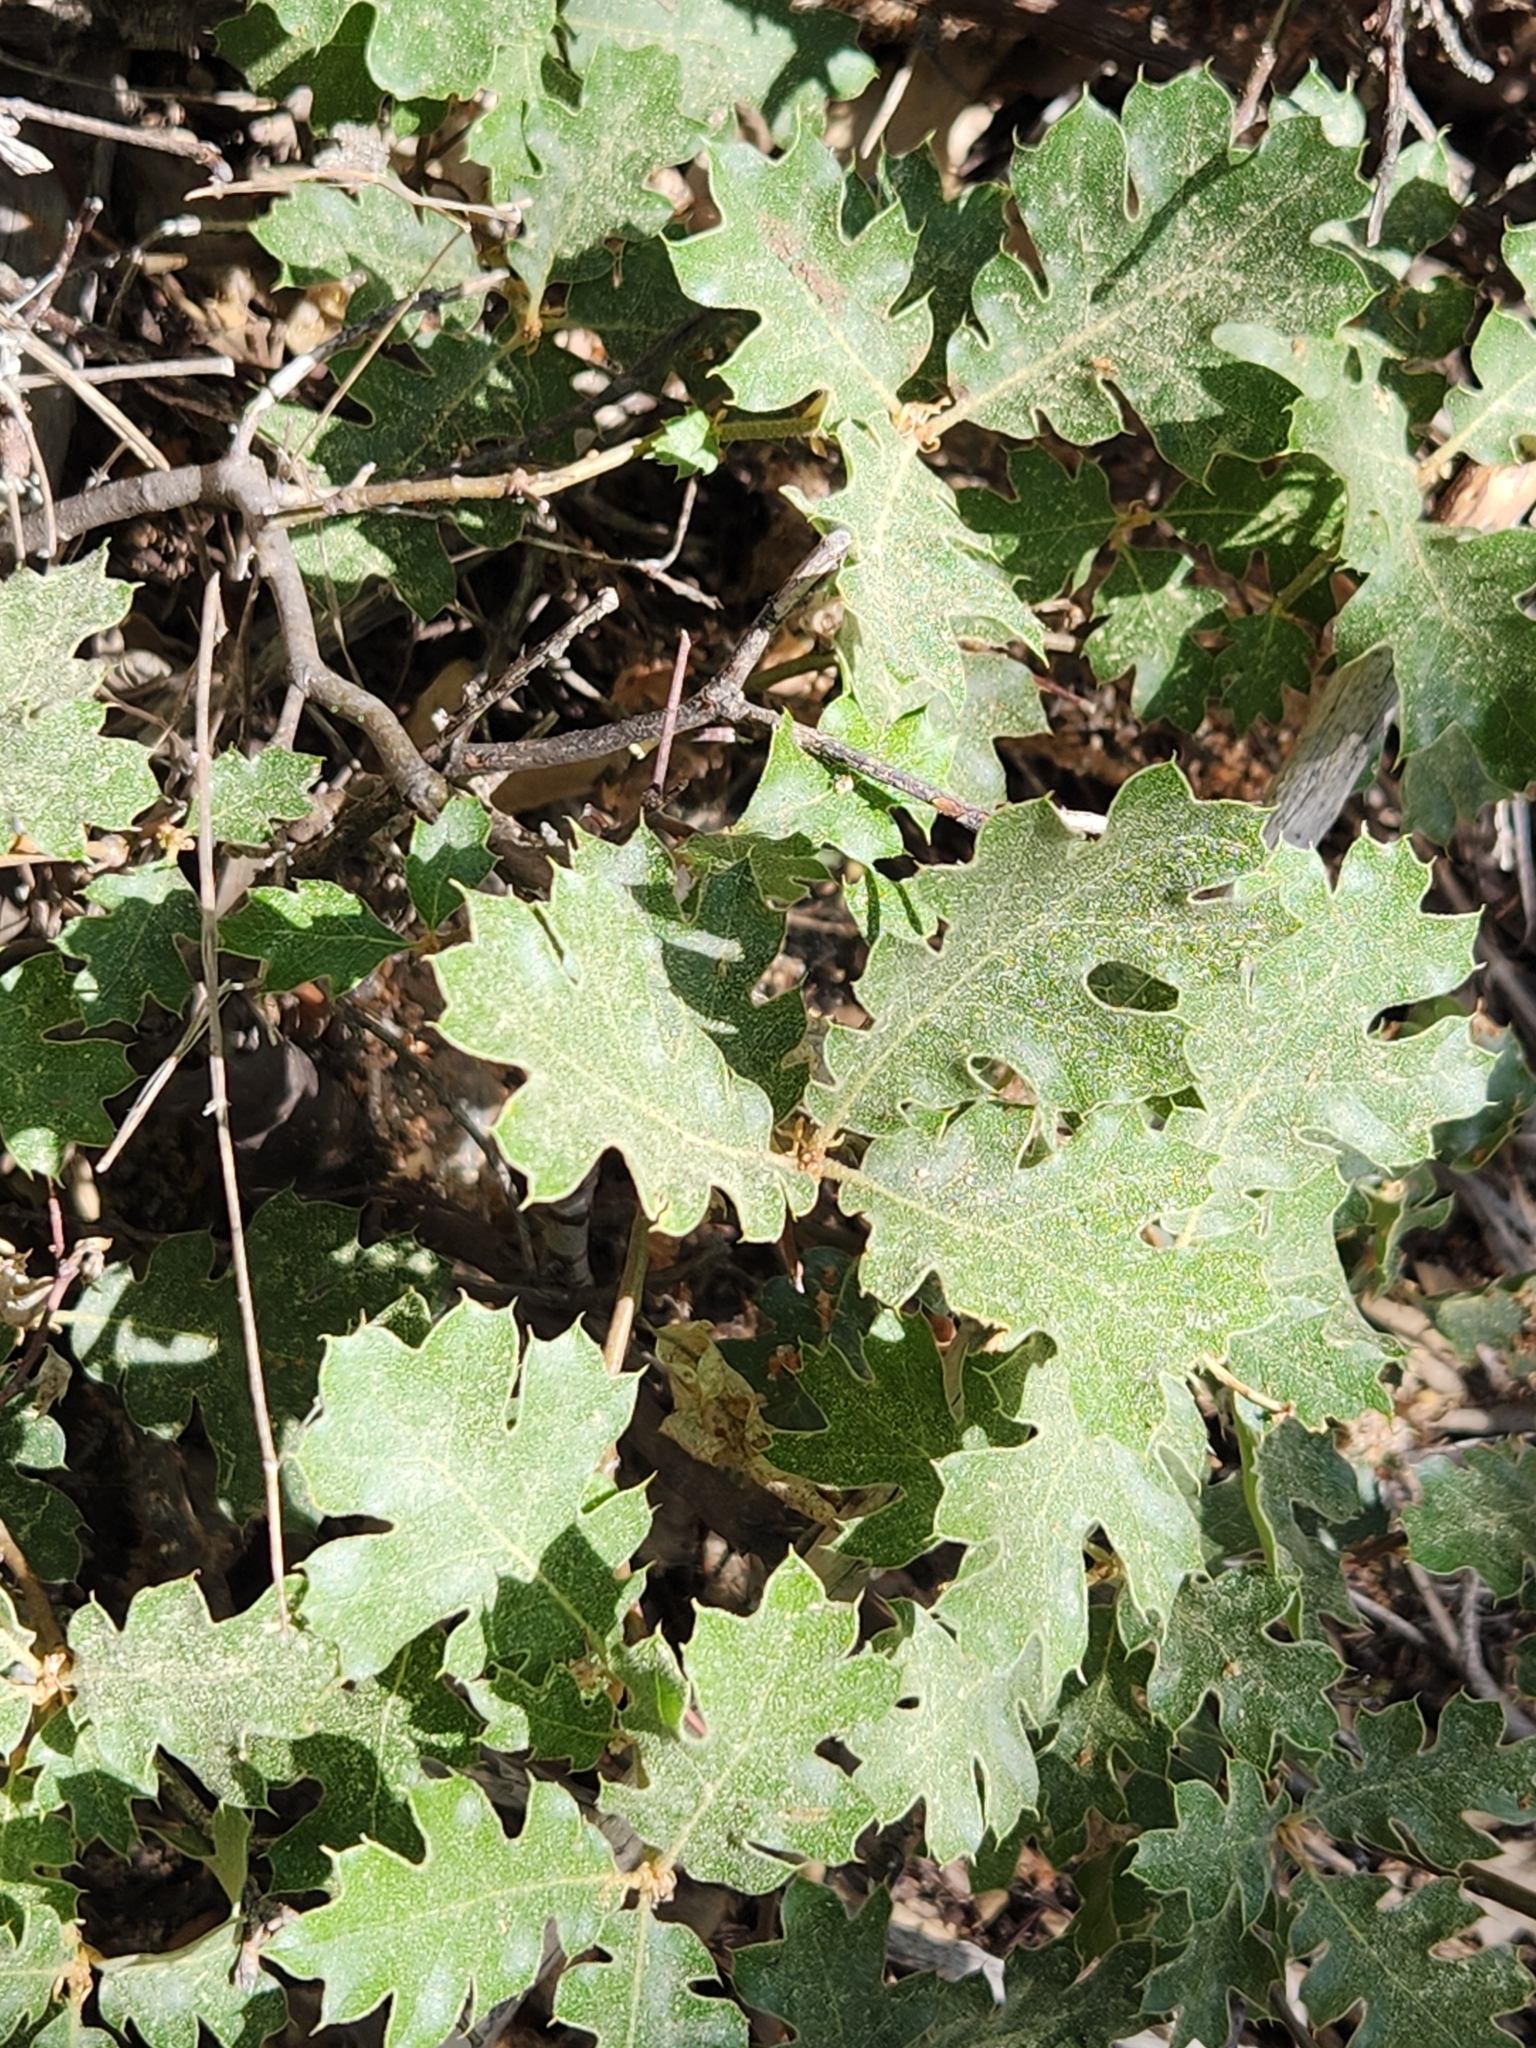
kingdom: Plantae
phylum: Tracheophyta
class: Magnoliopsida
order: Fagales
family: Fagaceae
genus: Quercus
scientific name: Quercus kelloggii
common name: California black oak
